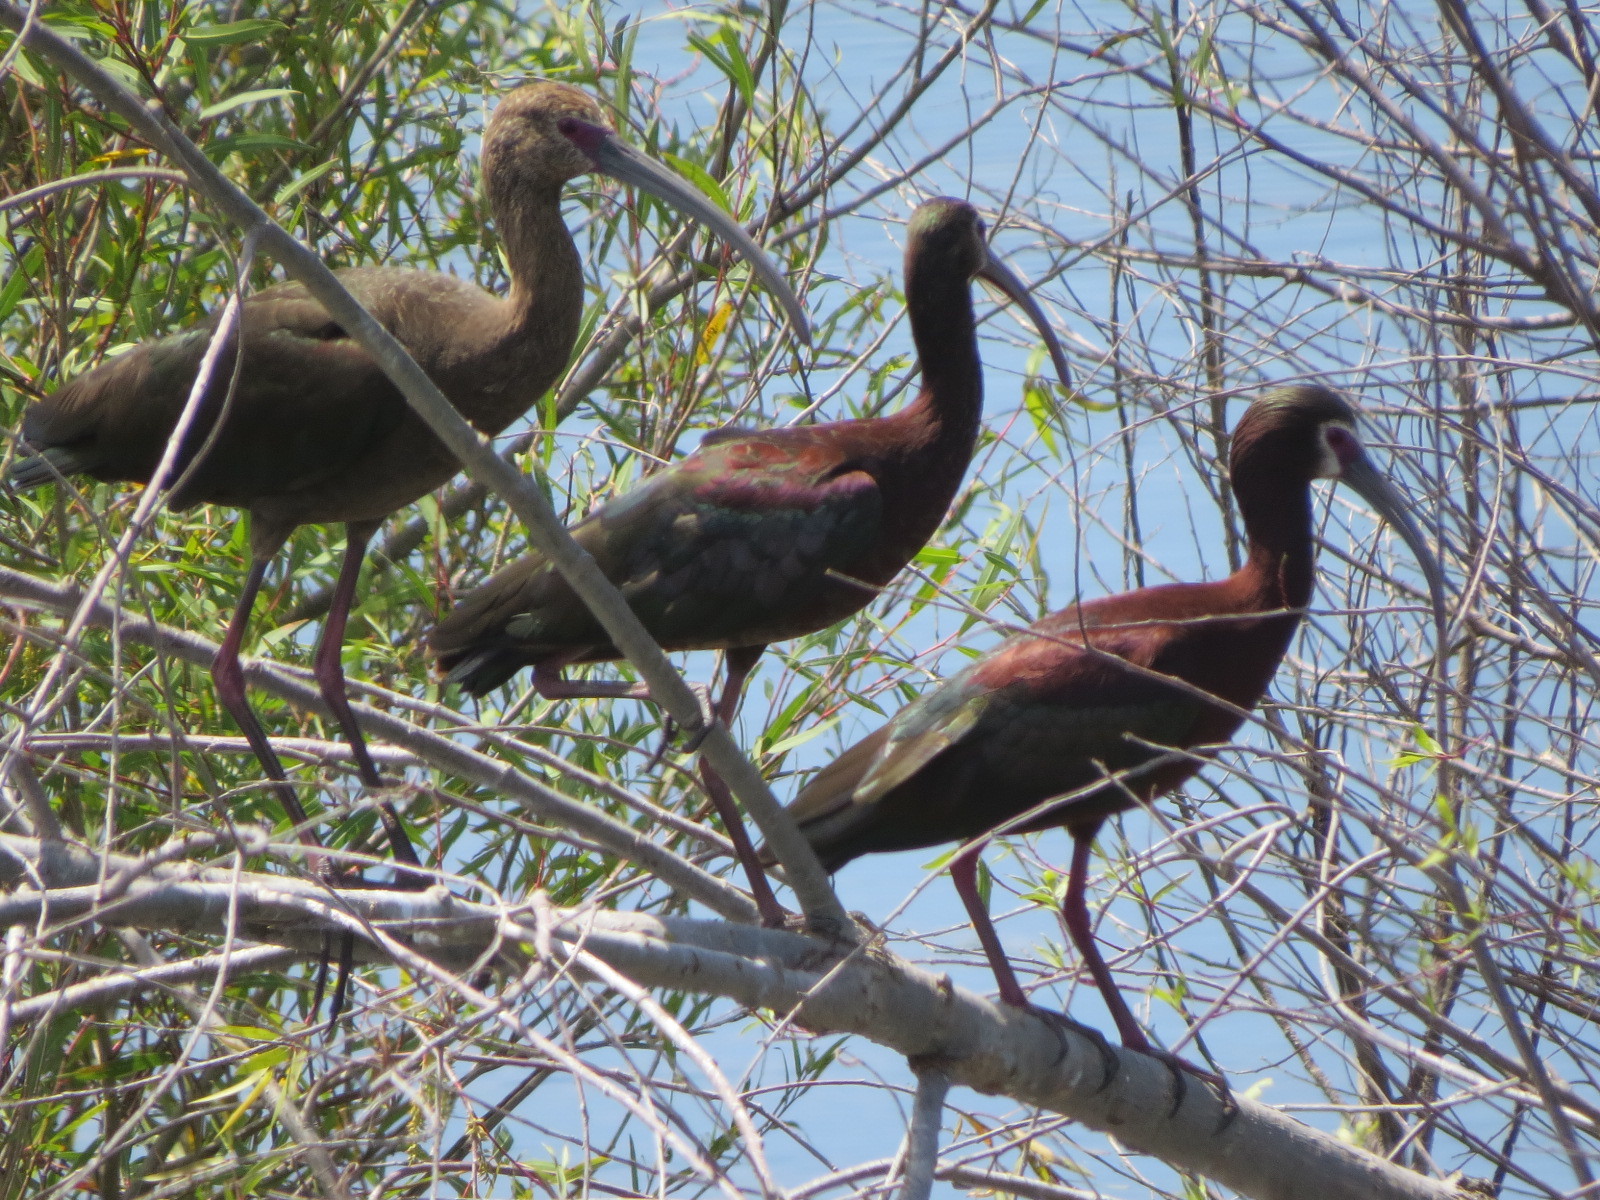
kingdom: Animalia
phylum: Chordata
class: Aves
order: Pelecaniformes
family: Threskiornithidae
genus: Plegadis
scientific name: Plegadis chihi
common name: White-faced ibis
